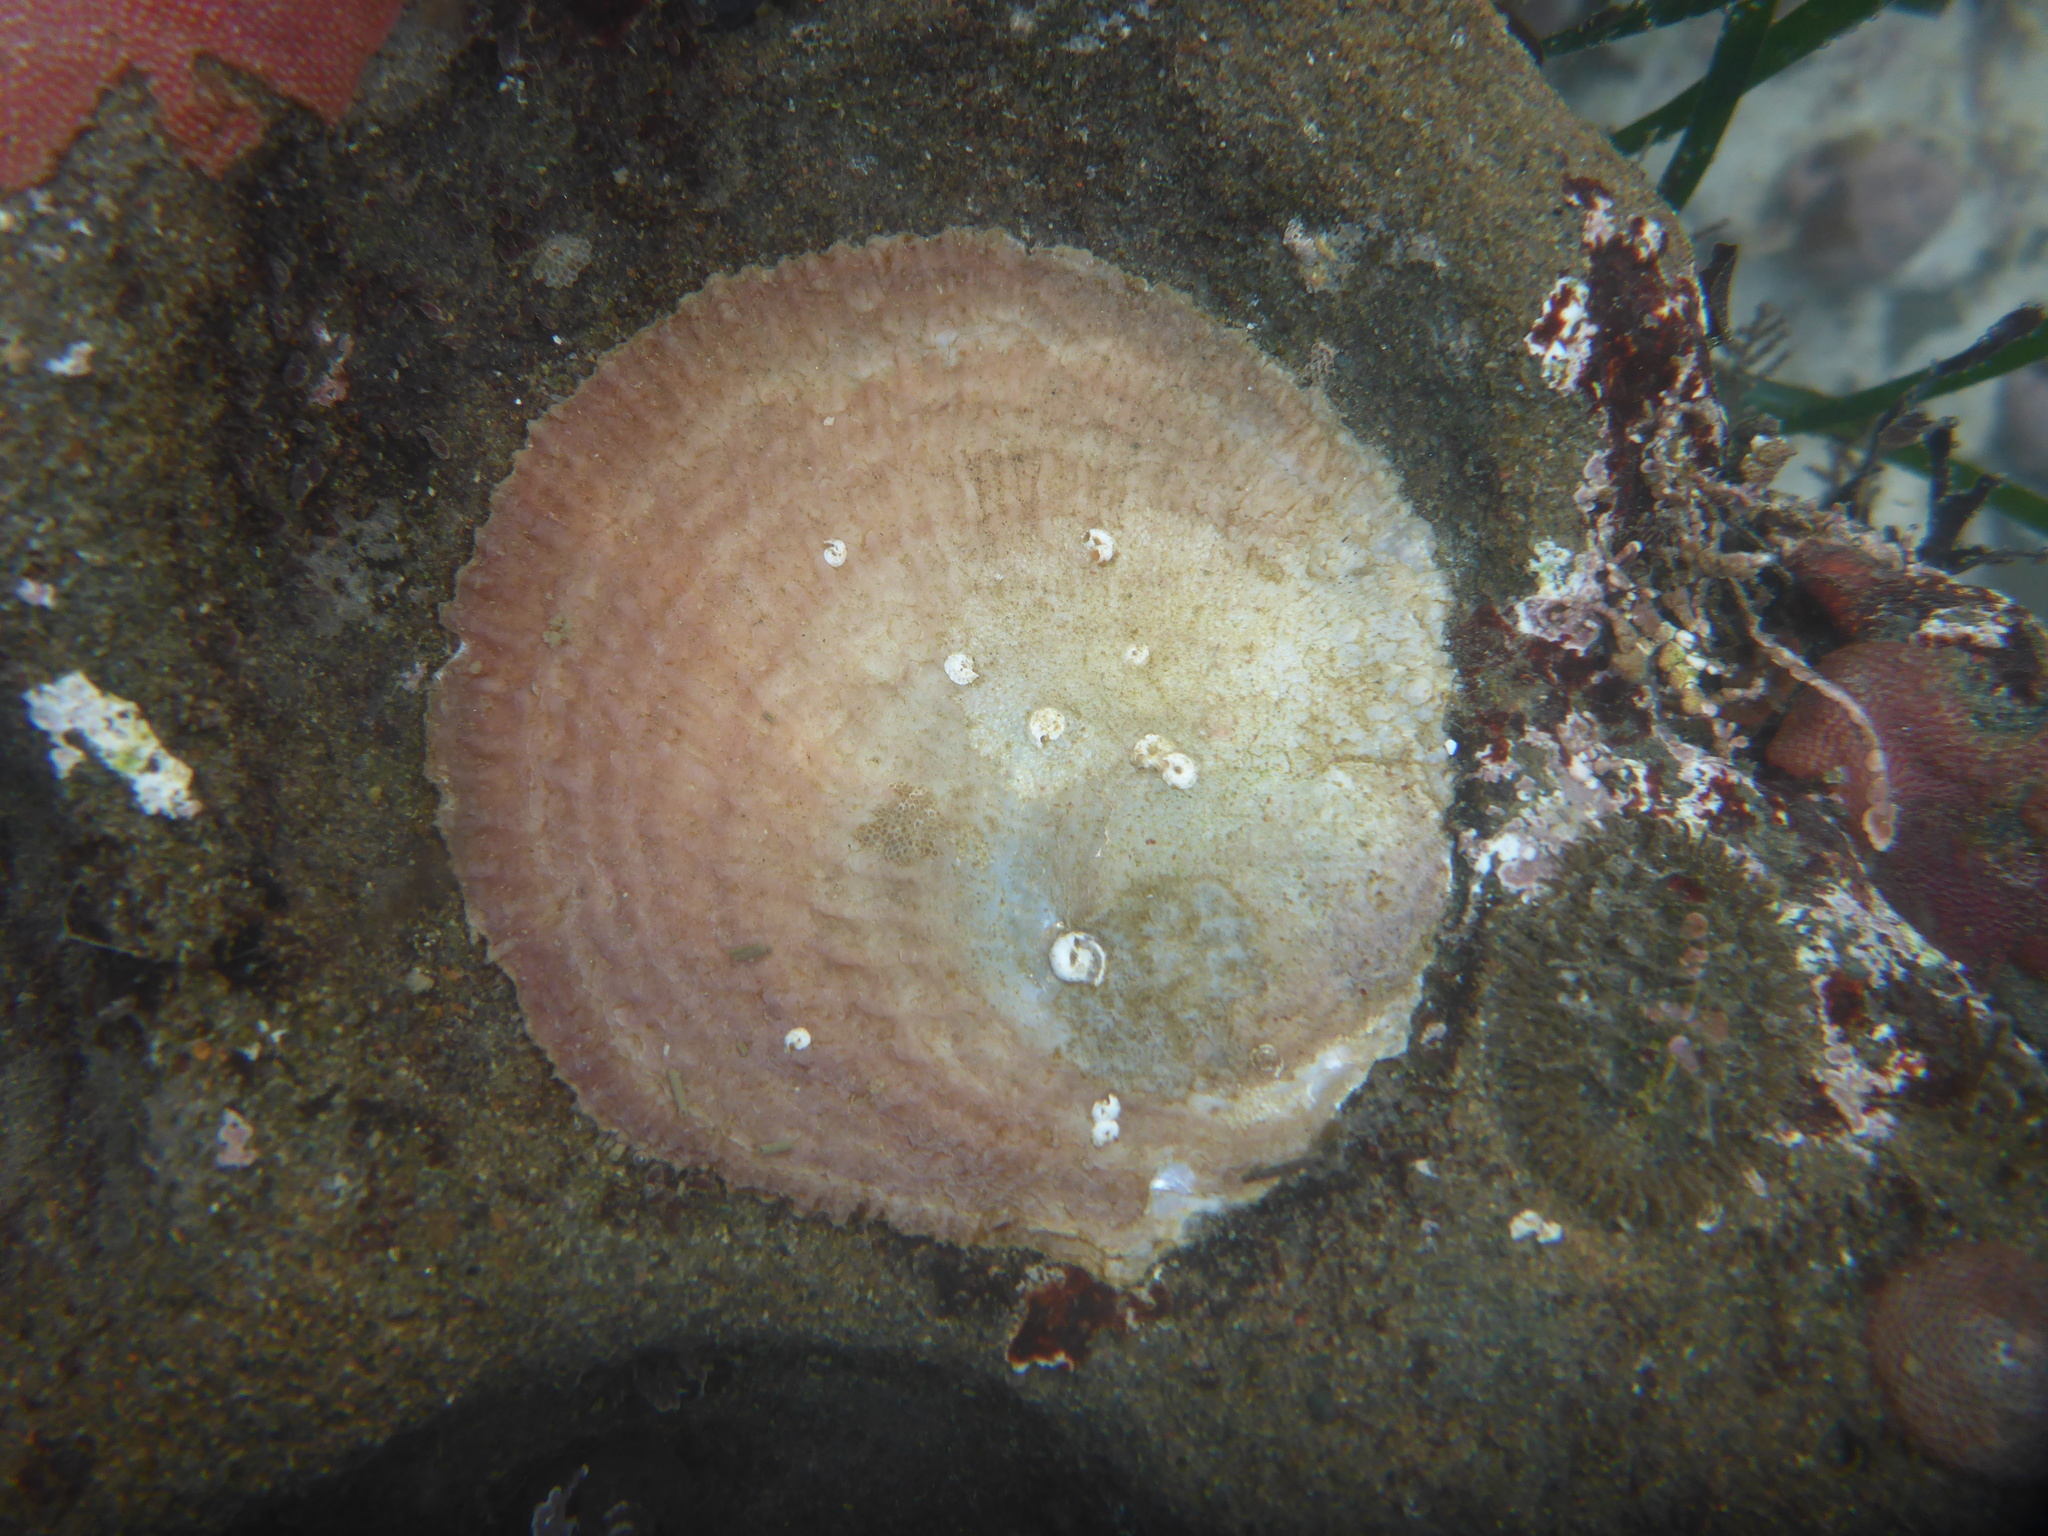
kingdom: Animalia
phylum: Mollusca
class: Bivalvia
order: Pectinida
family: Anomiidae
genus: Pododesmus
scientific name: Pododesmus macrochisma
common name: Alaska jingle
